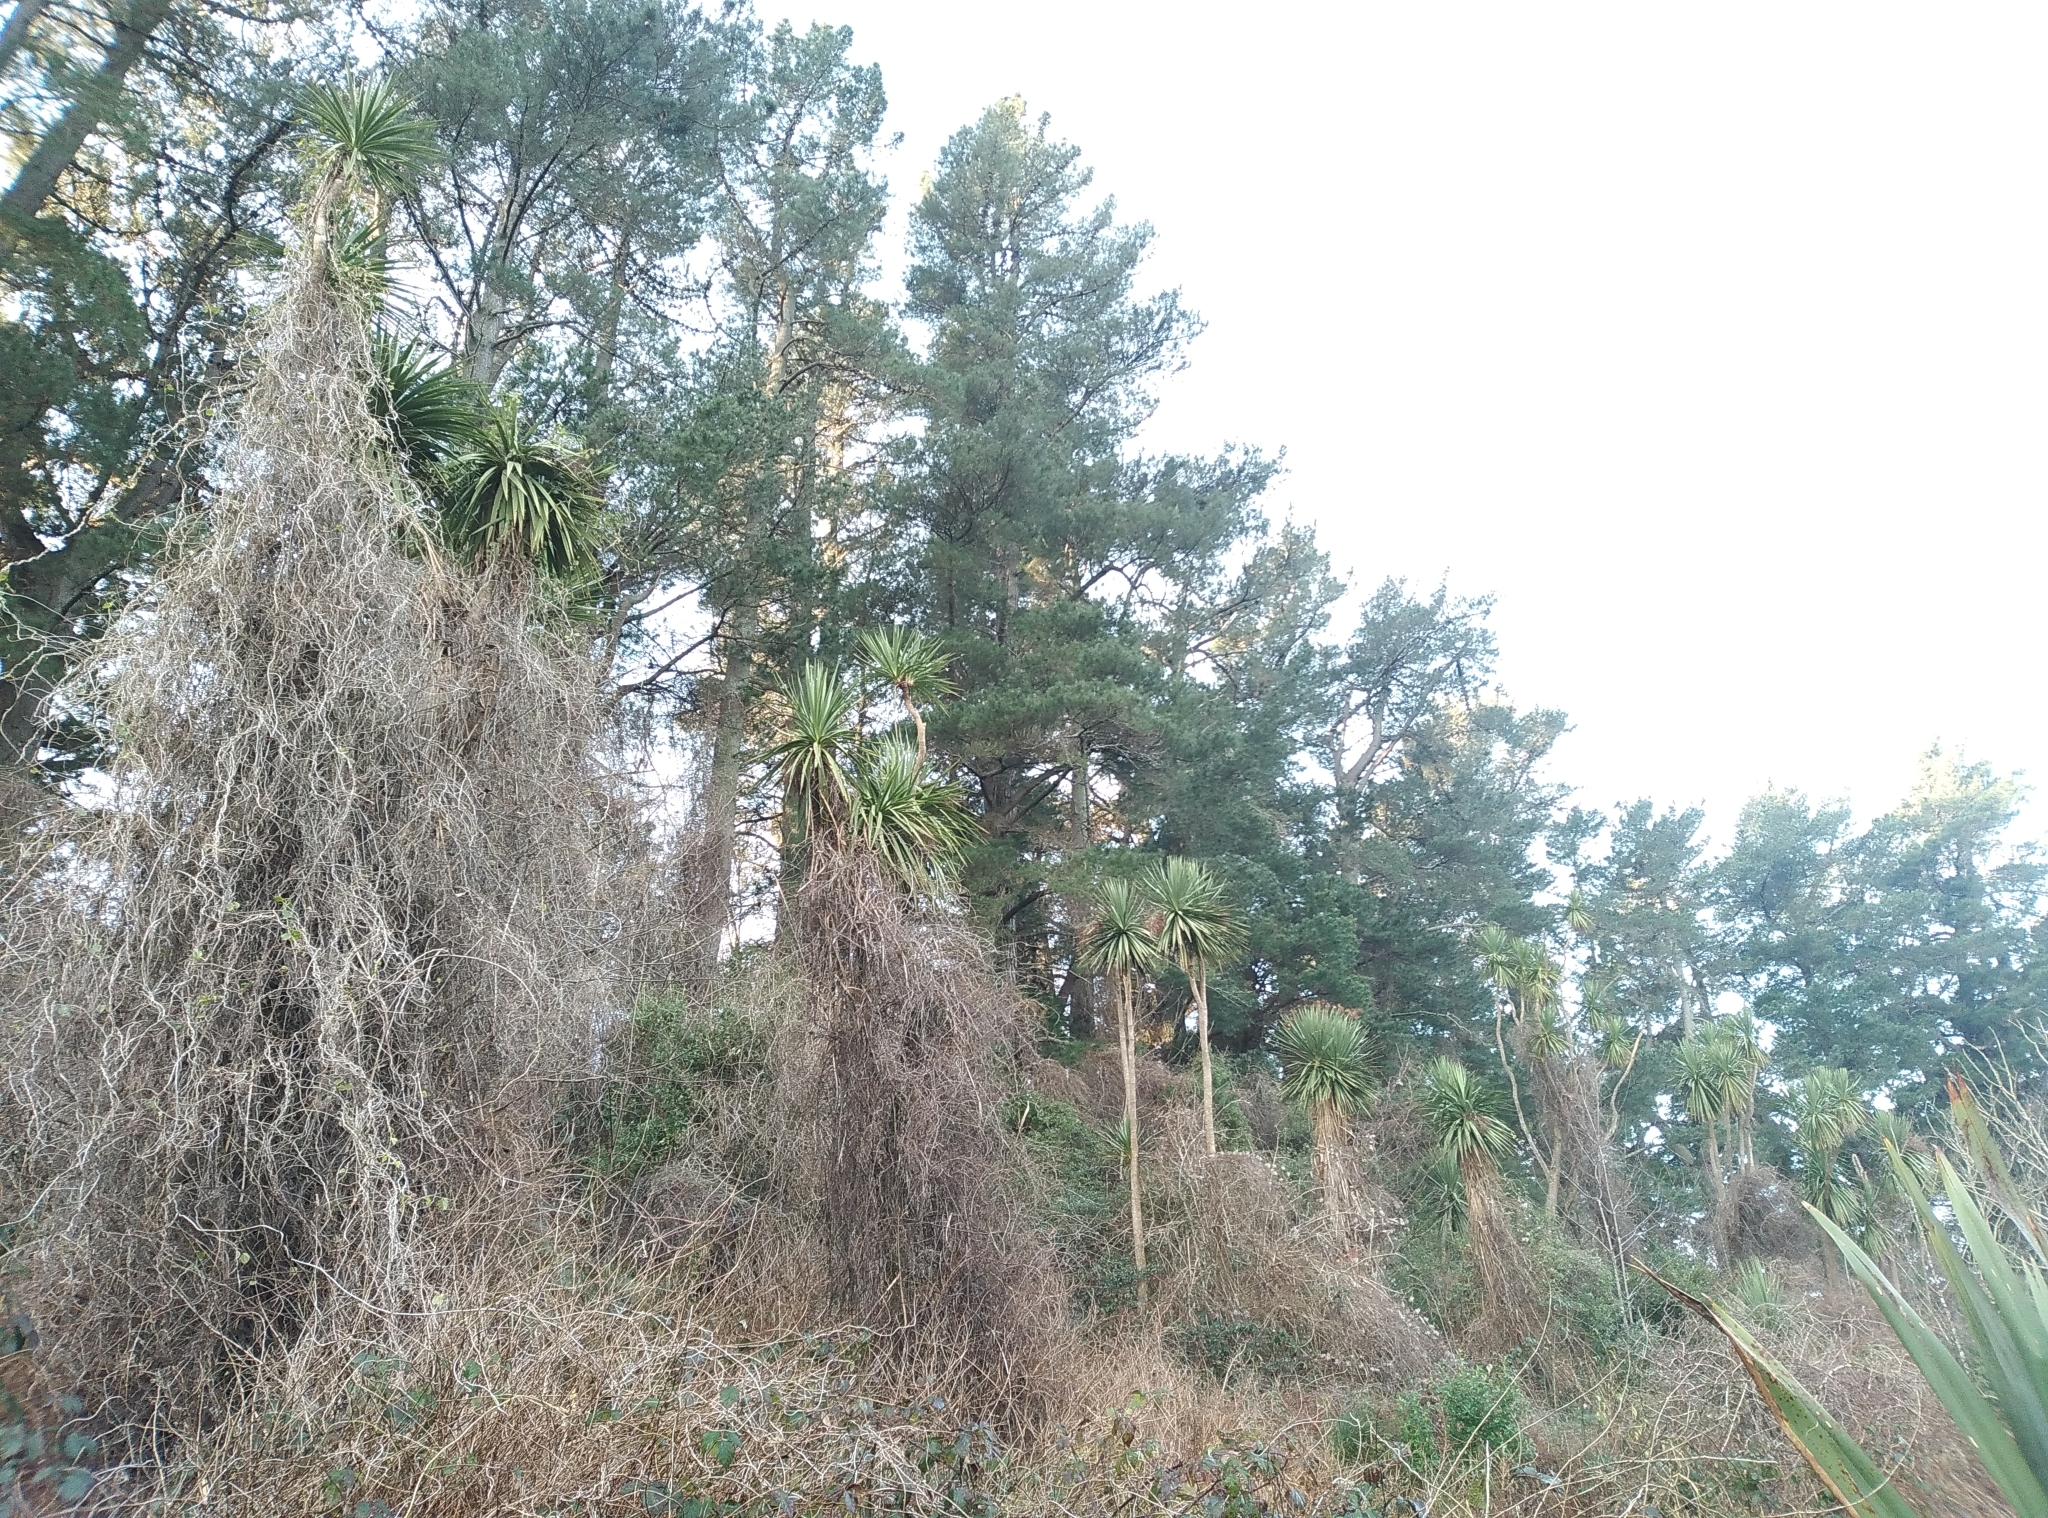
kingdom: Plantae
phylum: Tracheophyta
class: Liliopsida
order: Asparagales
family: Asparagaceae
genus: Cordyline
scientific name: Cordyline australis
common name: Cabbage-palm
